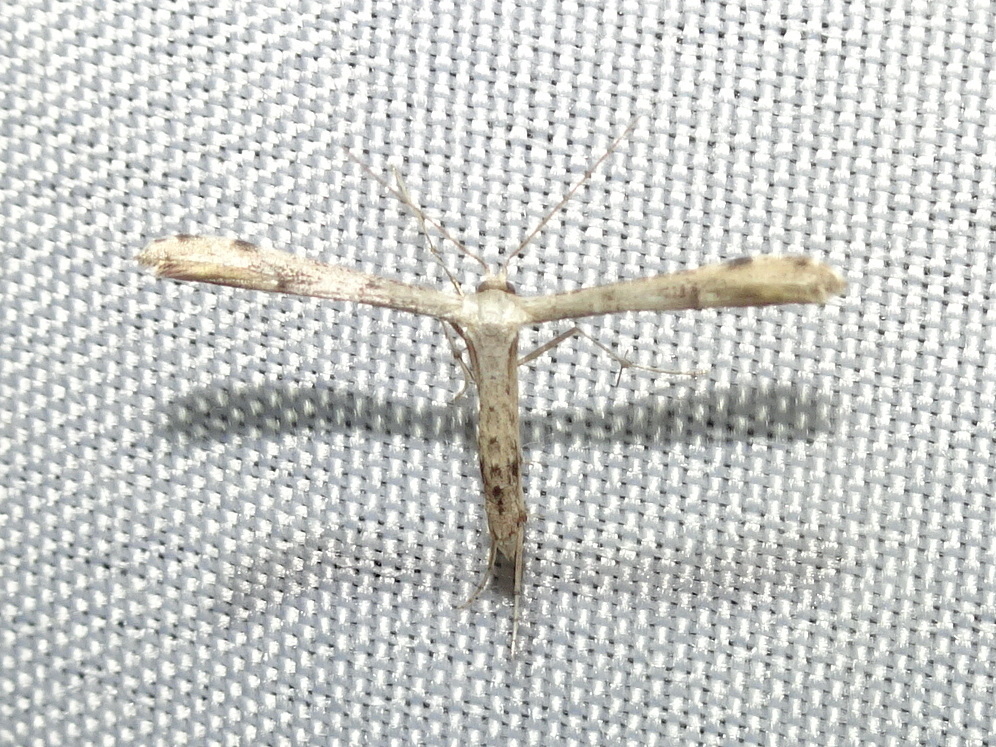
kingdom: Animalia
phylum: Arthropoda
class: Insecta
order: Lepidoptera
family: Pterophoridae
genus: Adaina
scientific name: Adaina ambrosiae
